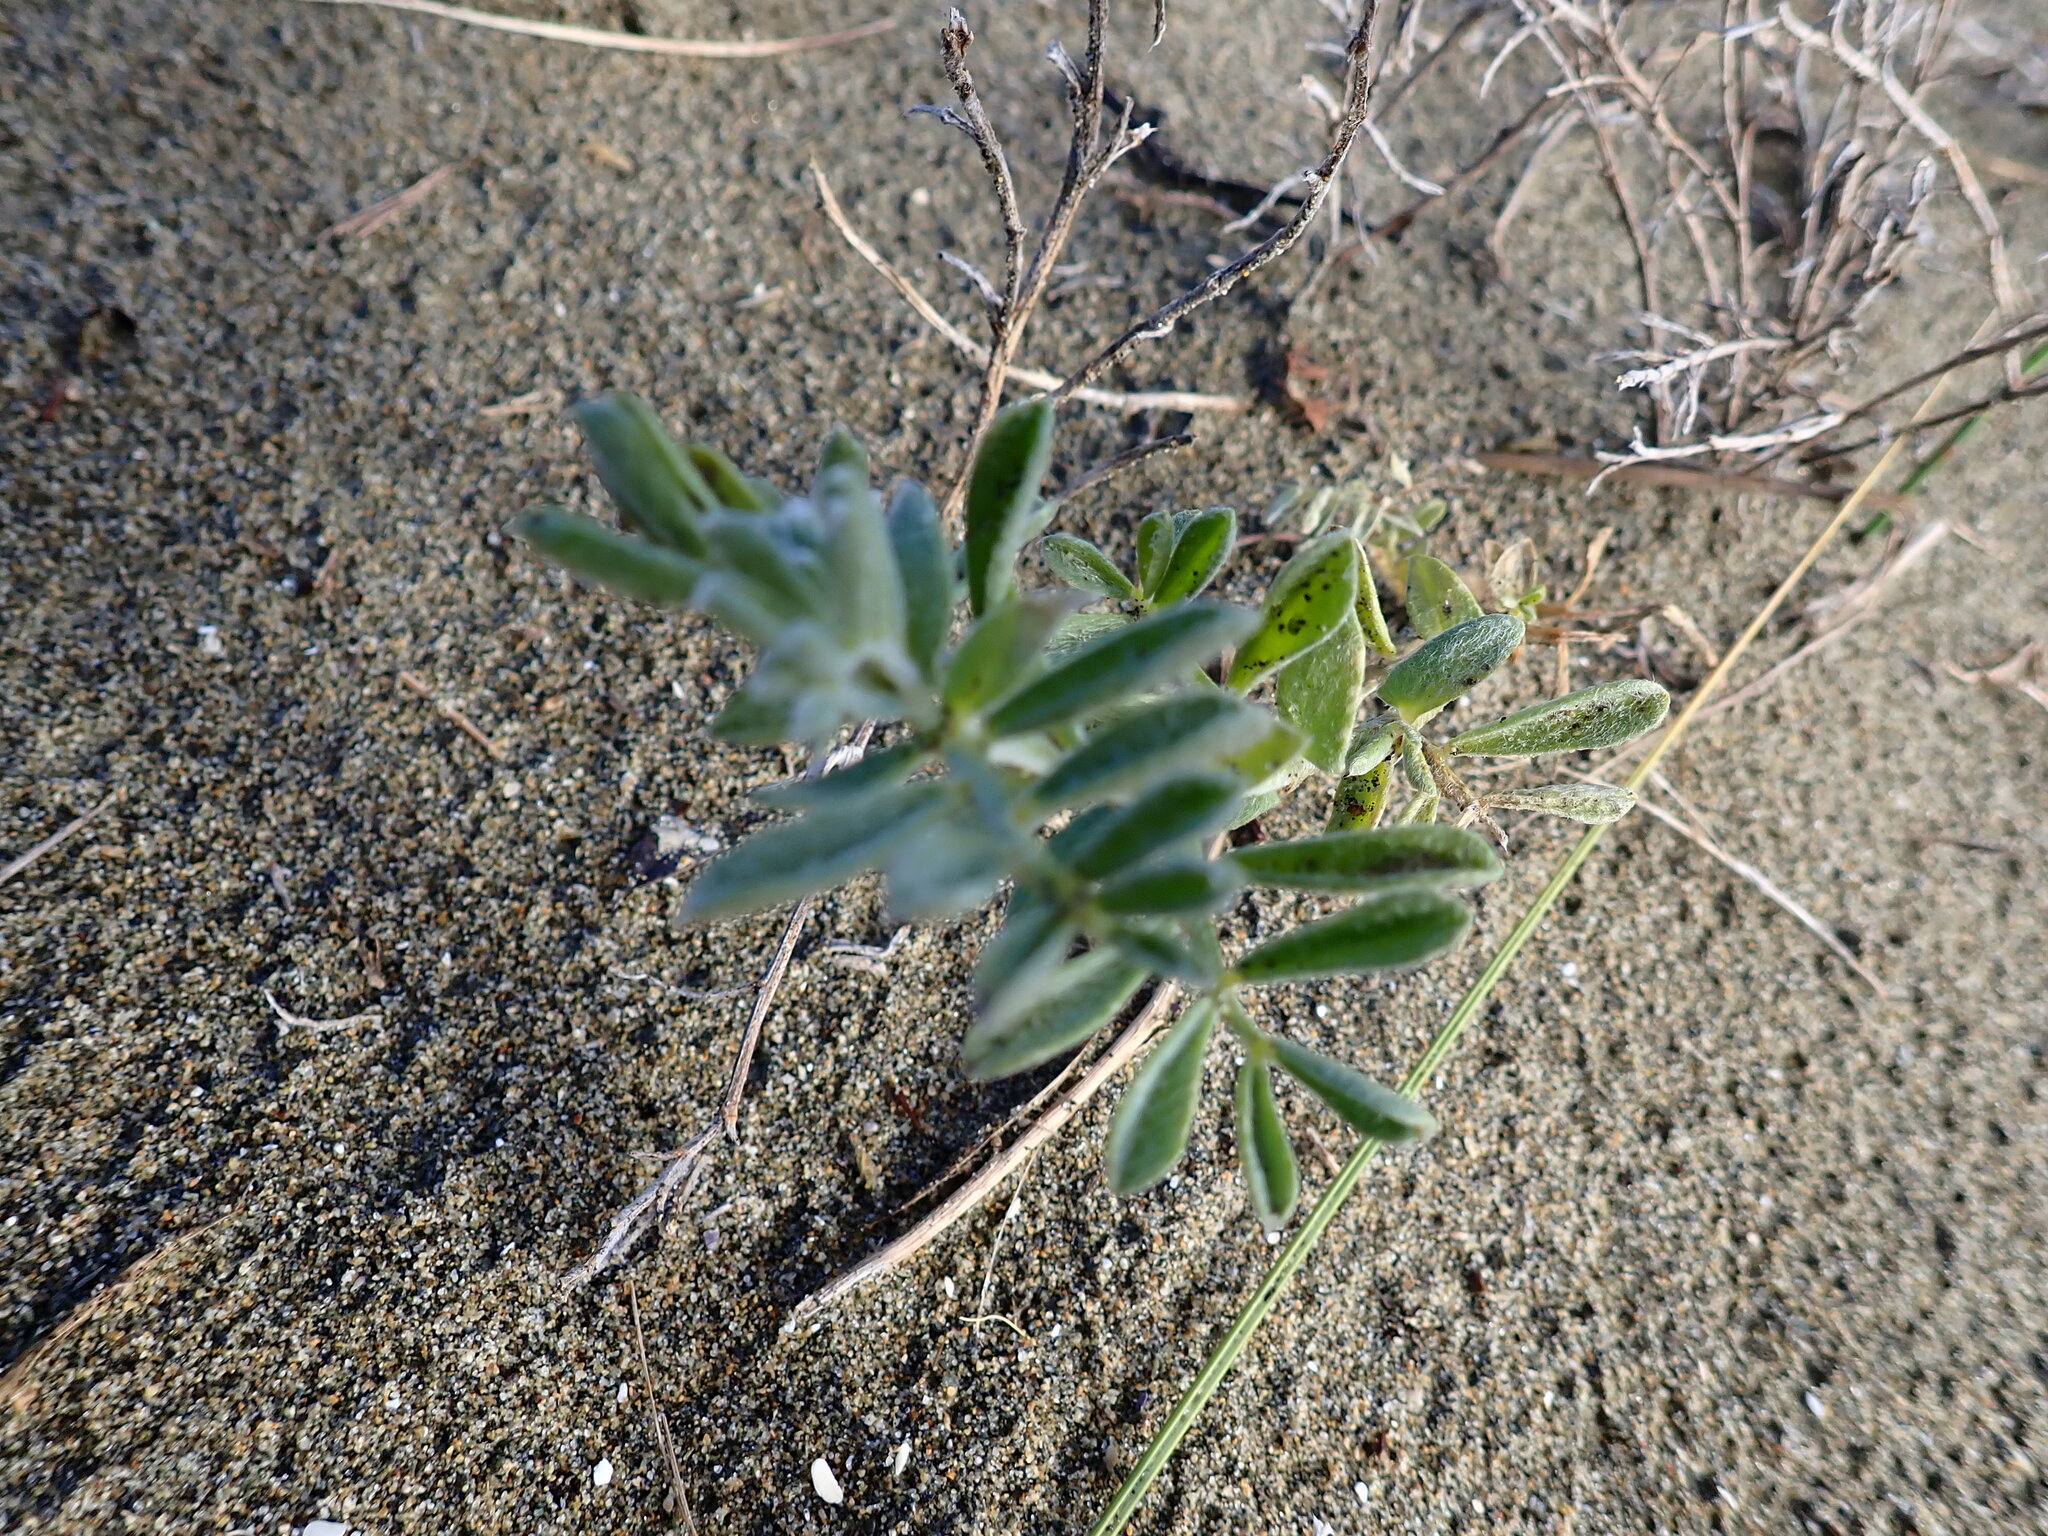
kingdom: Plantae
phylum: Tracheophyta
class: Magnoliopsida
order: Fabales
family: Fabaceae
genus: Lathyrus
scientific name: Lathyrus littoralis
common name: Dune sweet pea
